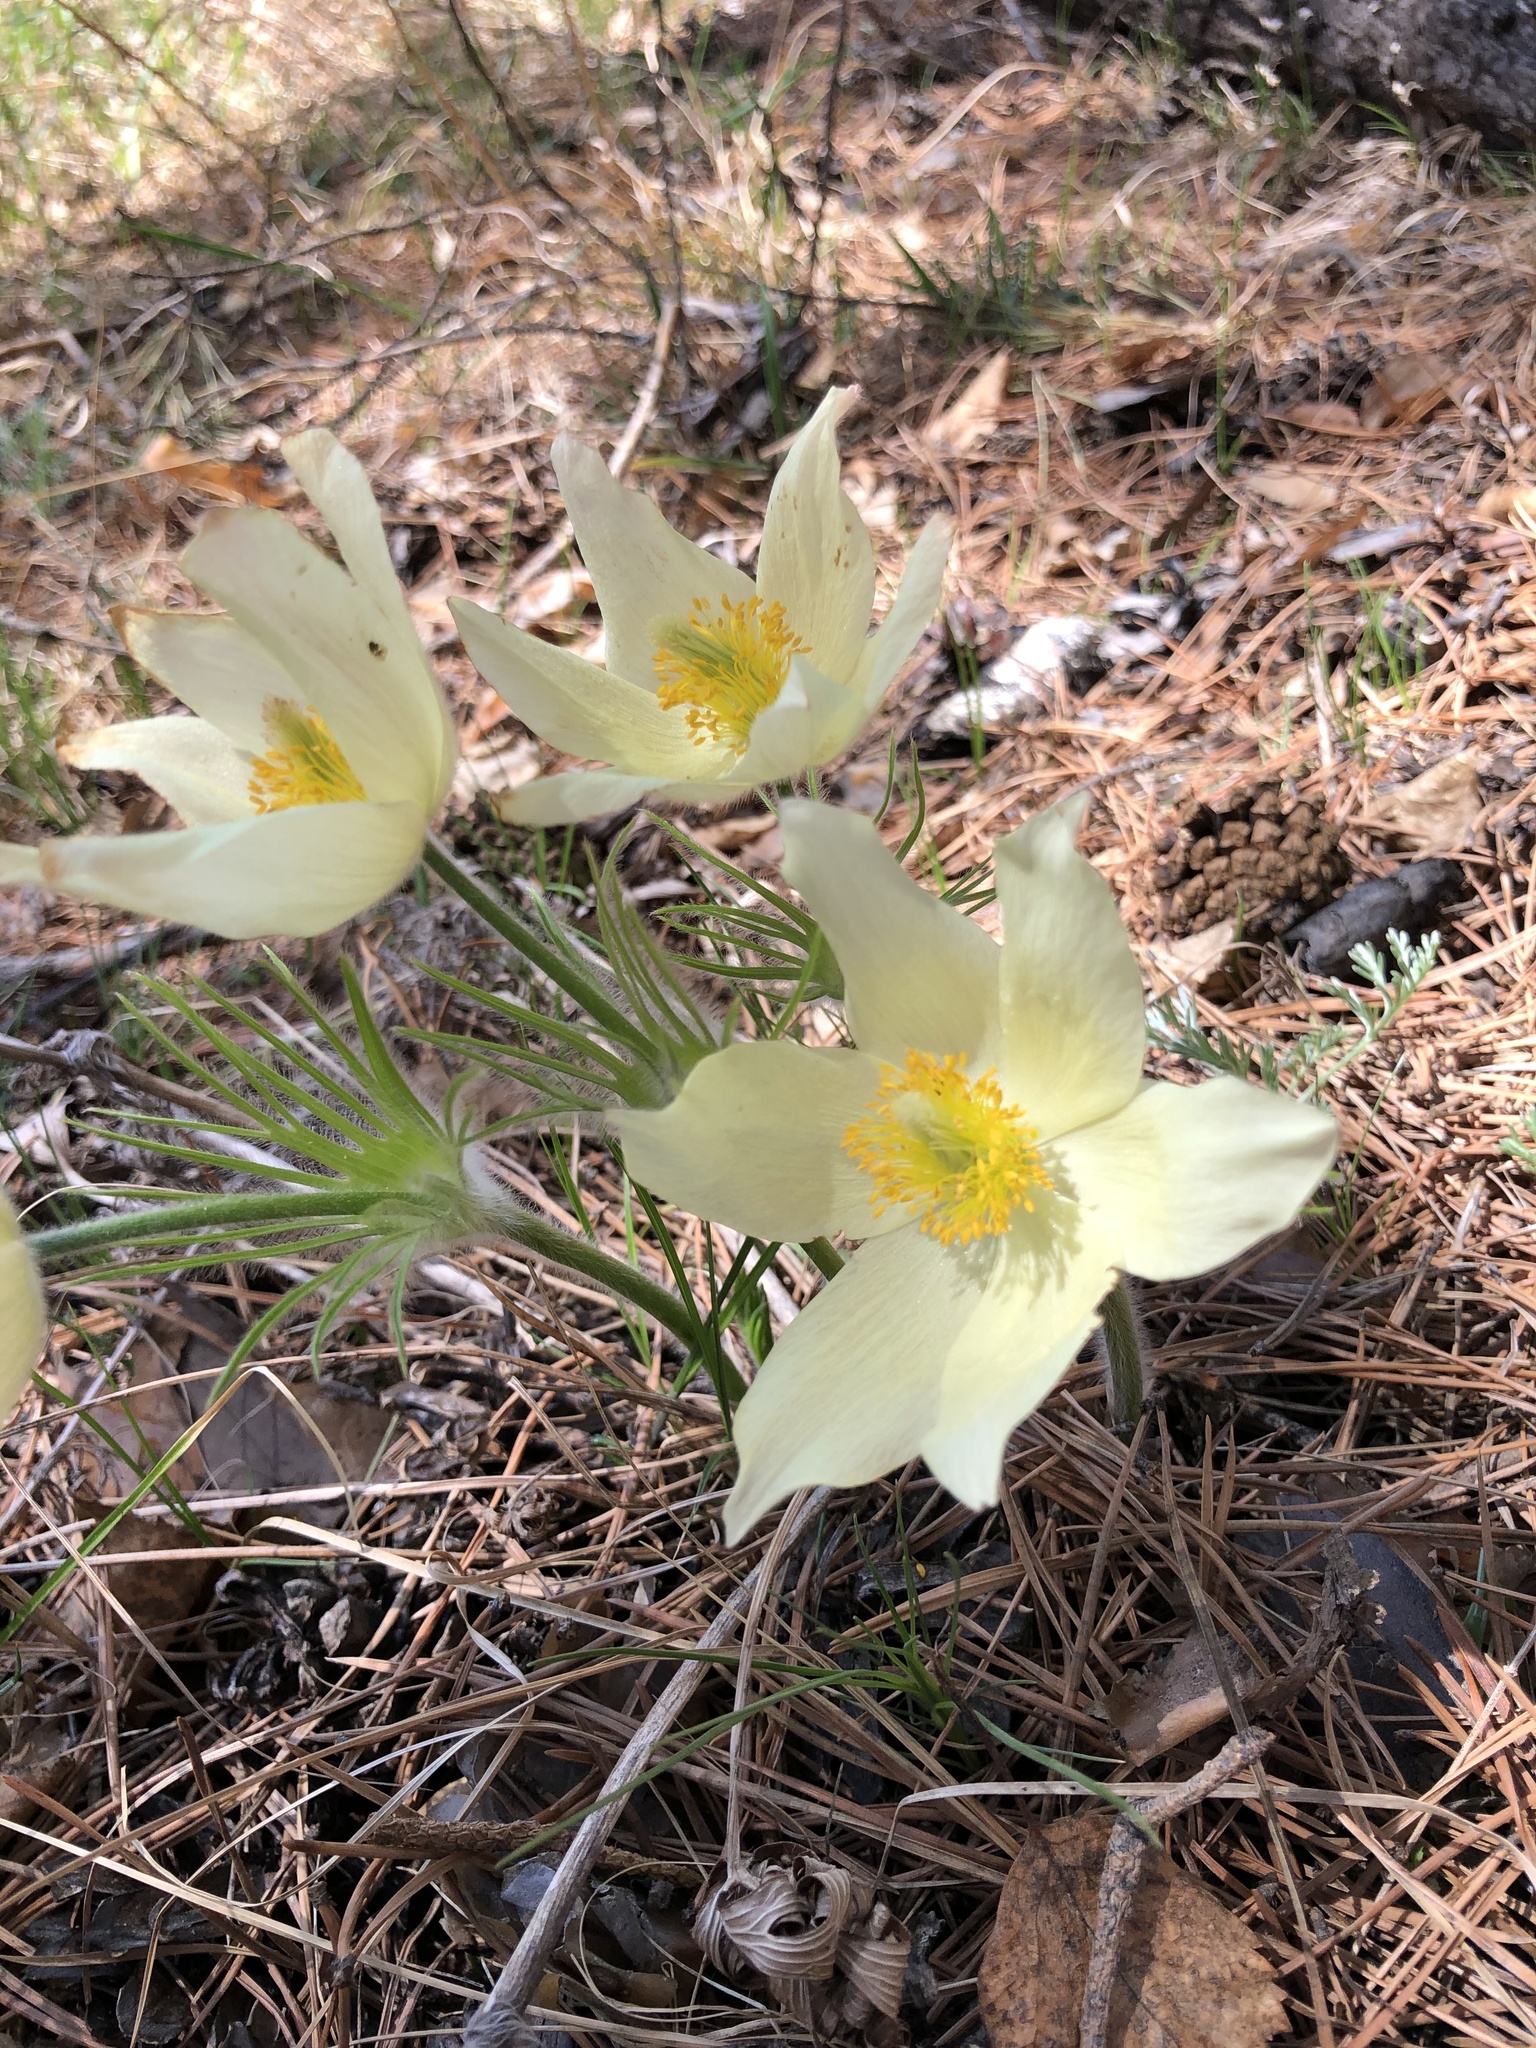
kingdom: Plantae
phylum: Tracheophyta
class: Magnoliopsida
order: Ranunculales
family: Ranunculaceae
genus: Pulsatilla
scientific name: Pulsatilla patens
